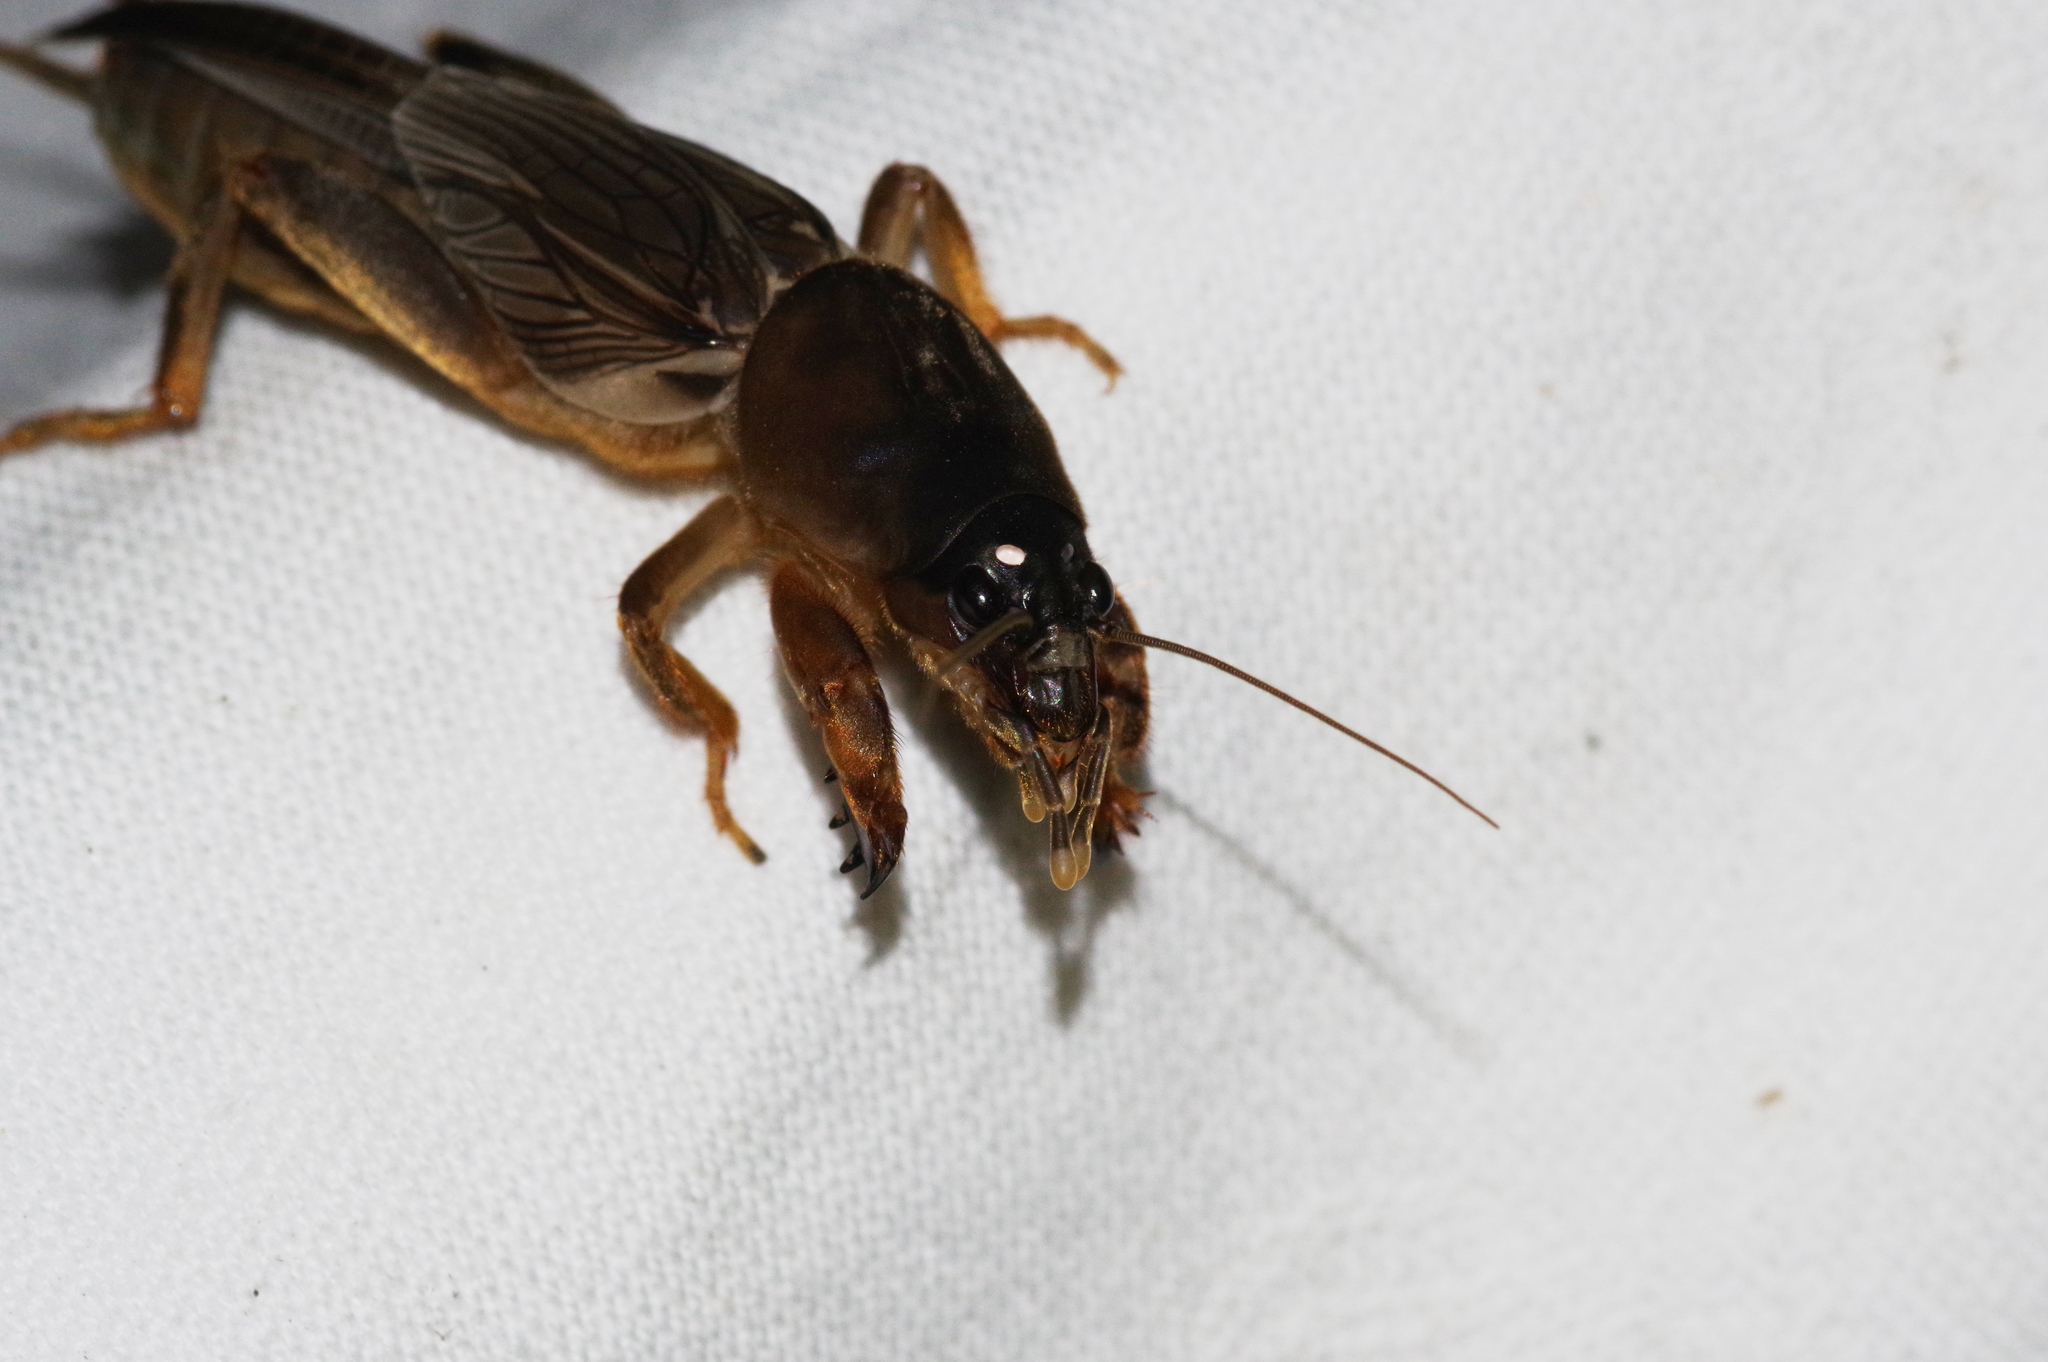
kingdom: Animalia
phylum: Arthropoda
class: Insecta
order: Orthoptera
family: Gryllotalpidae
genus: Gryllotalpa
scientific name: Gryllotalpa orientalis
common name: Grasshopper
